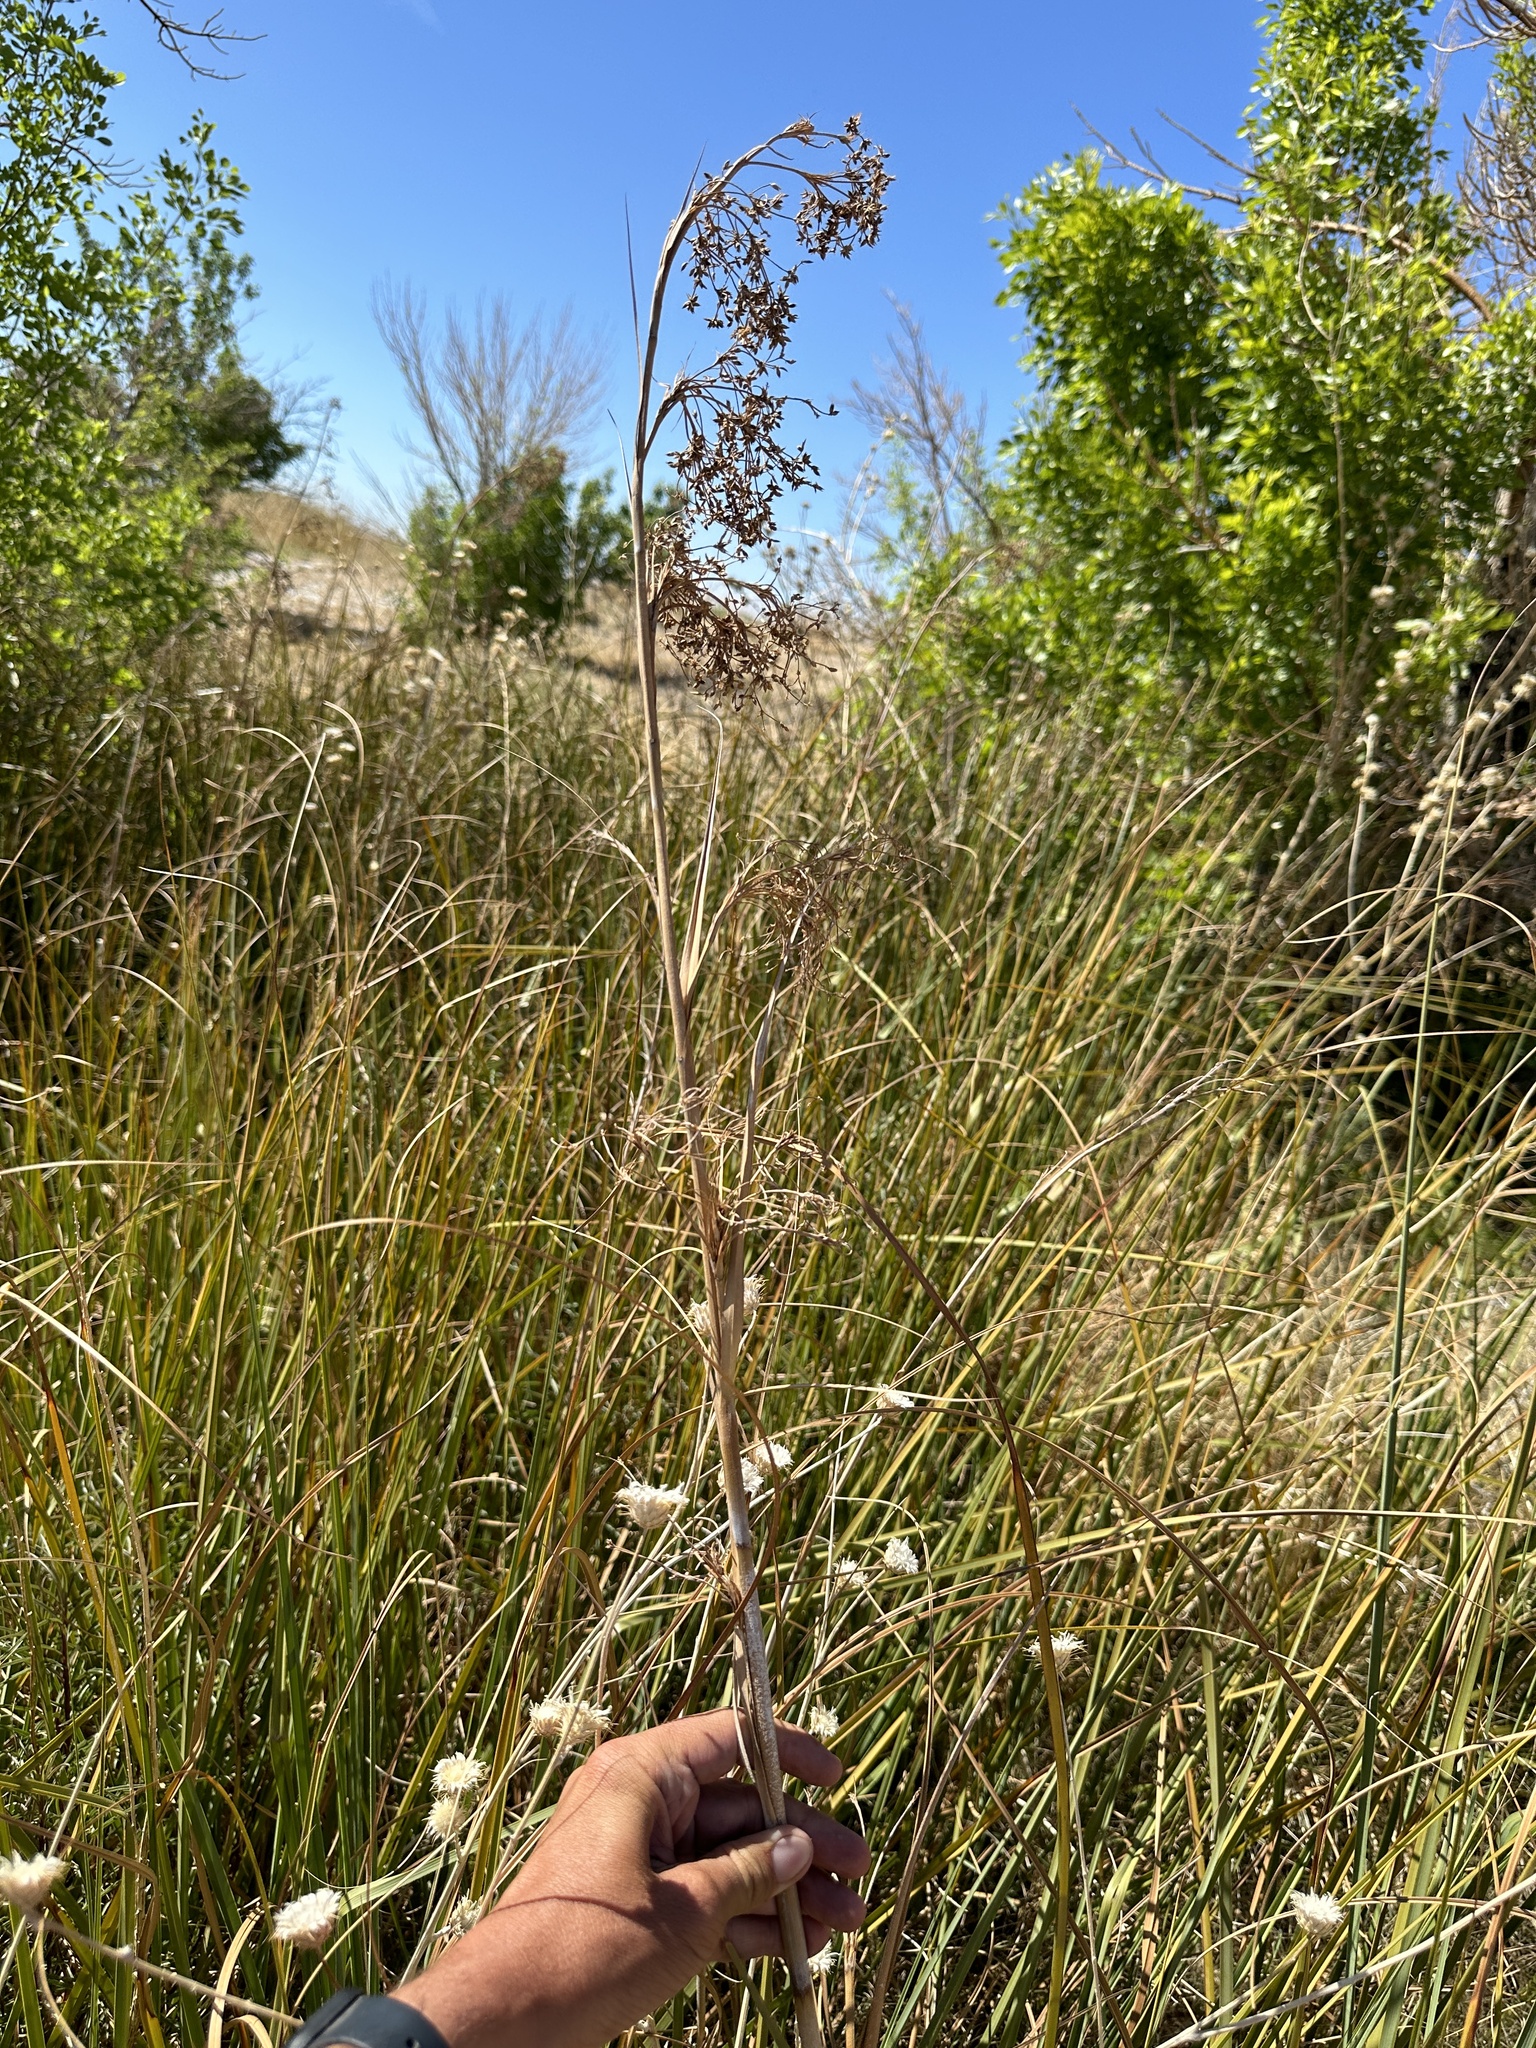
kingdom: Plantae
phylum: Tracheophyta
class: Liliopsida
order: Poales
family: Cyperaceae
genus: Cladium
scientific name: Cladium mariscus
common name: Great fen-sedge
